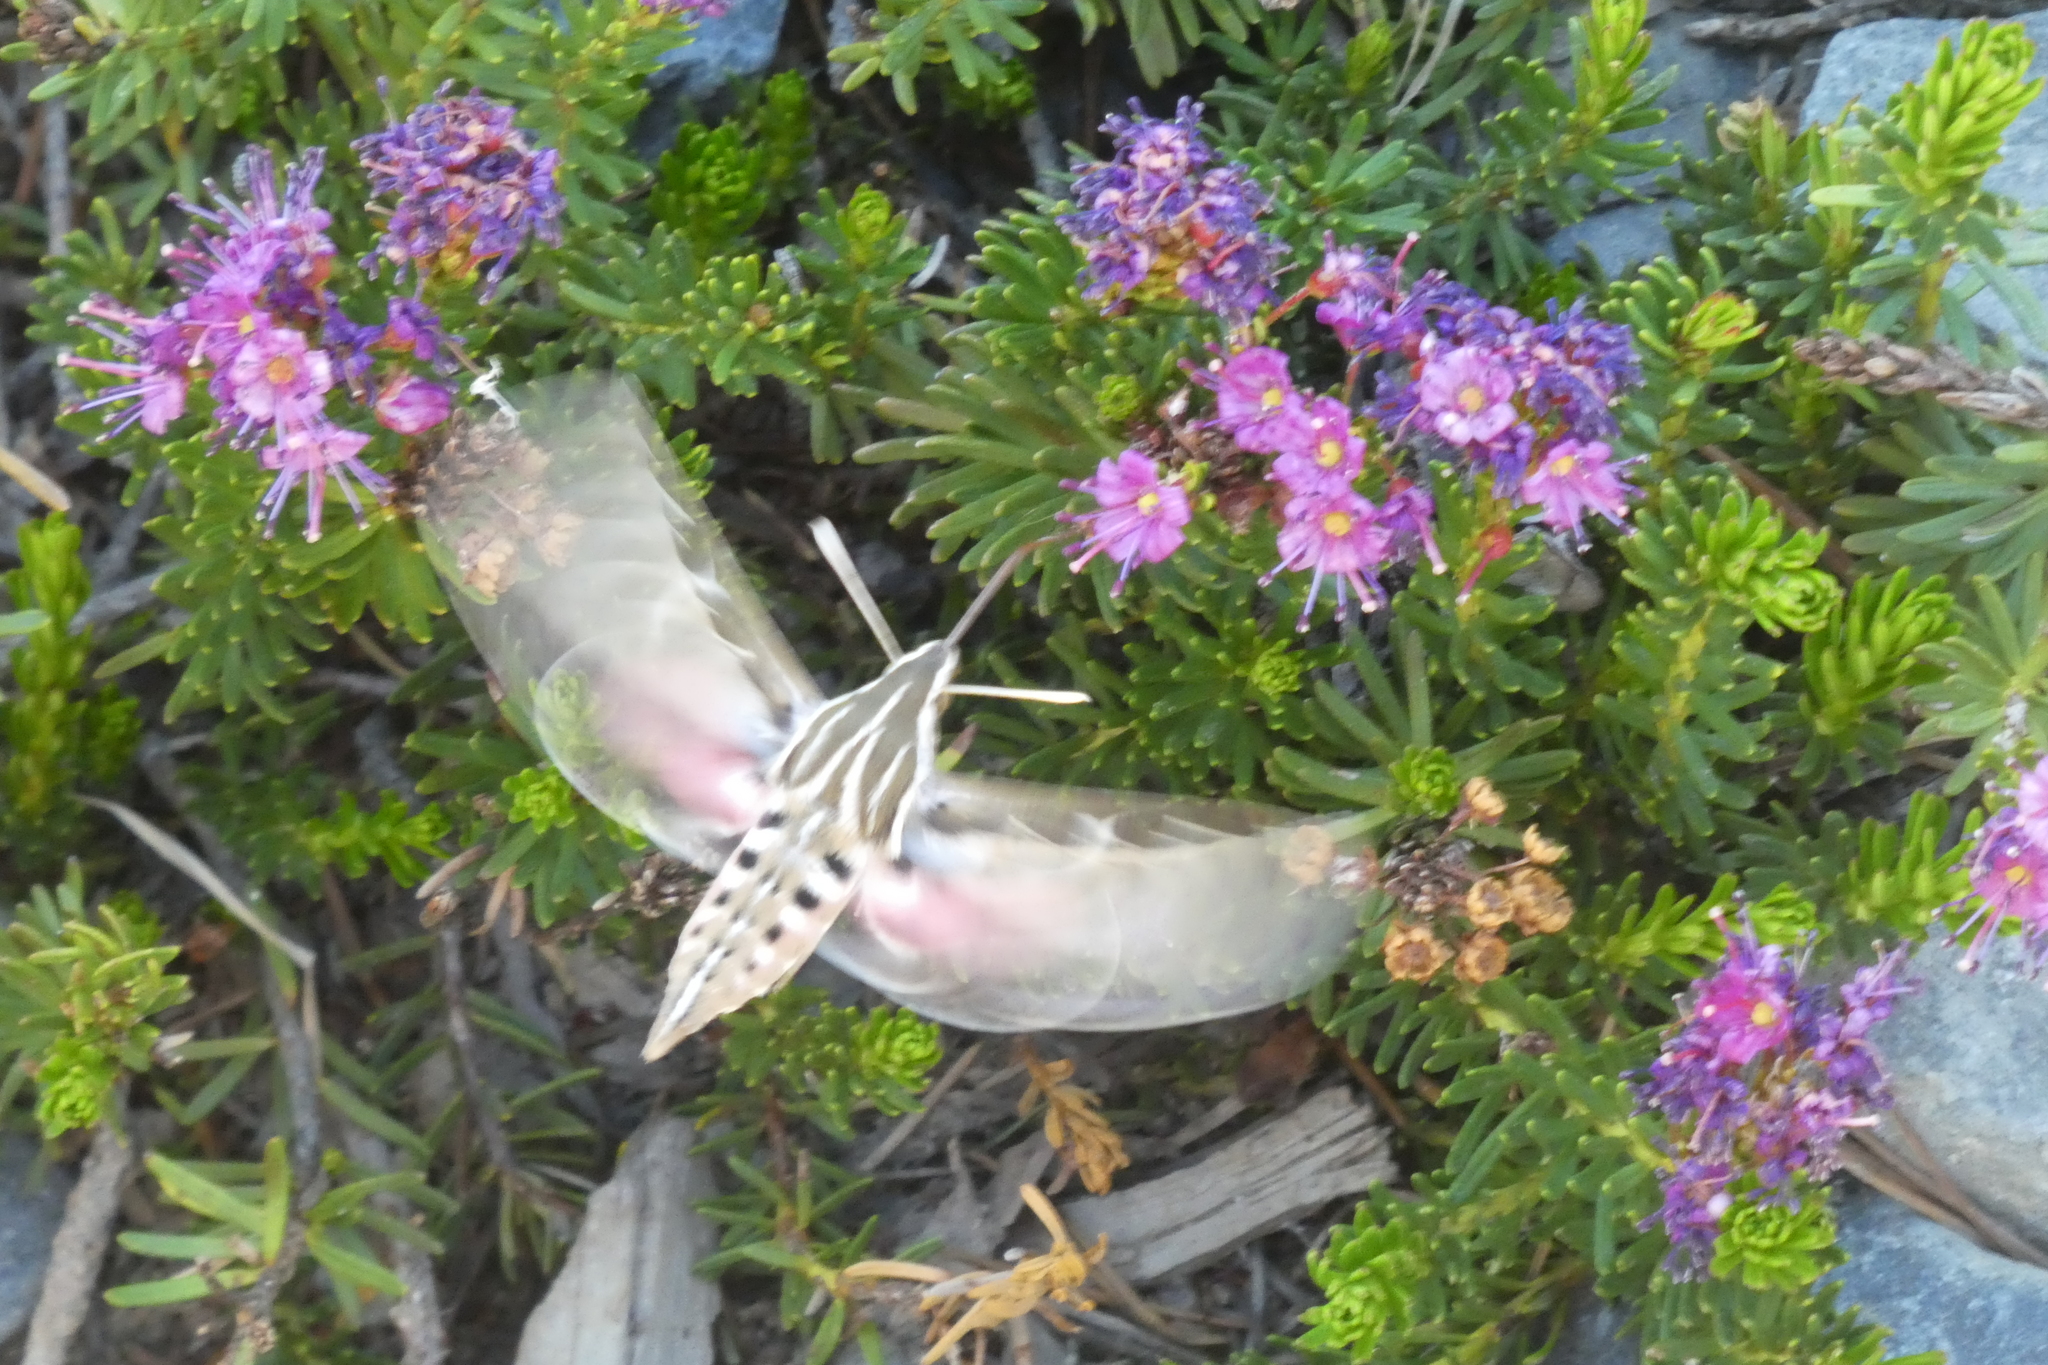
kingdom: Animalia
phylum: Arthropoda
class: Insecta
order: Lepidoptera
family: Sphingidae
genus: Hyles
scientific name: Hyles lineata
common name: White-lined sphinx
